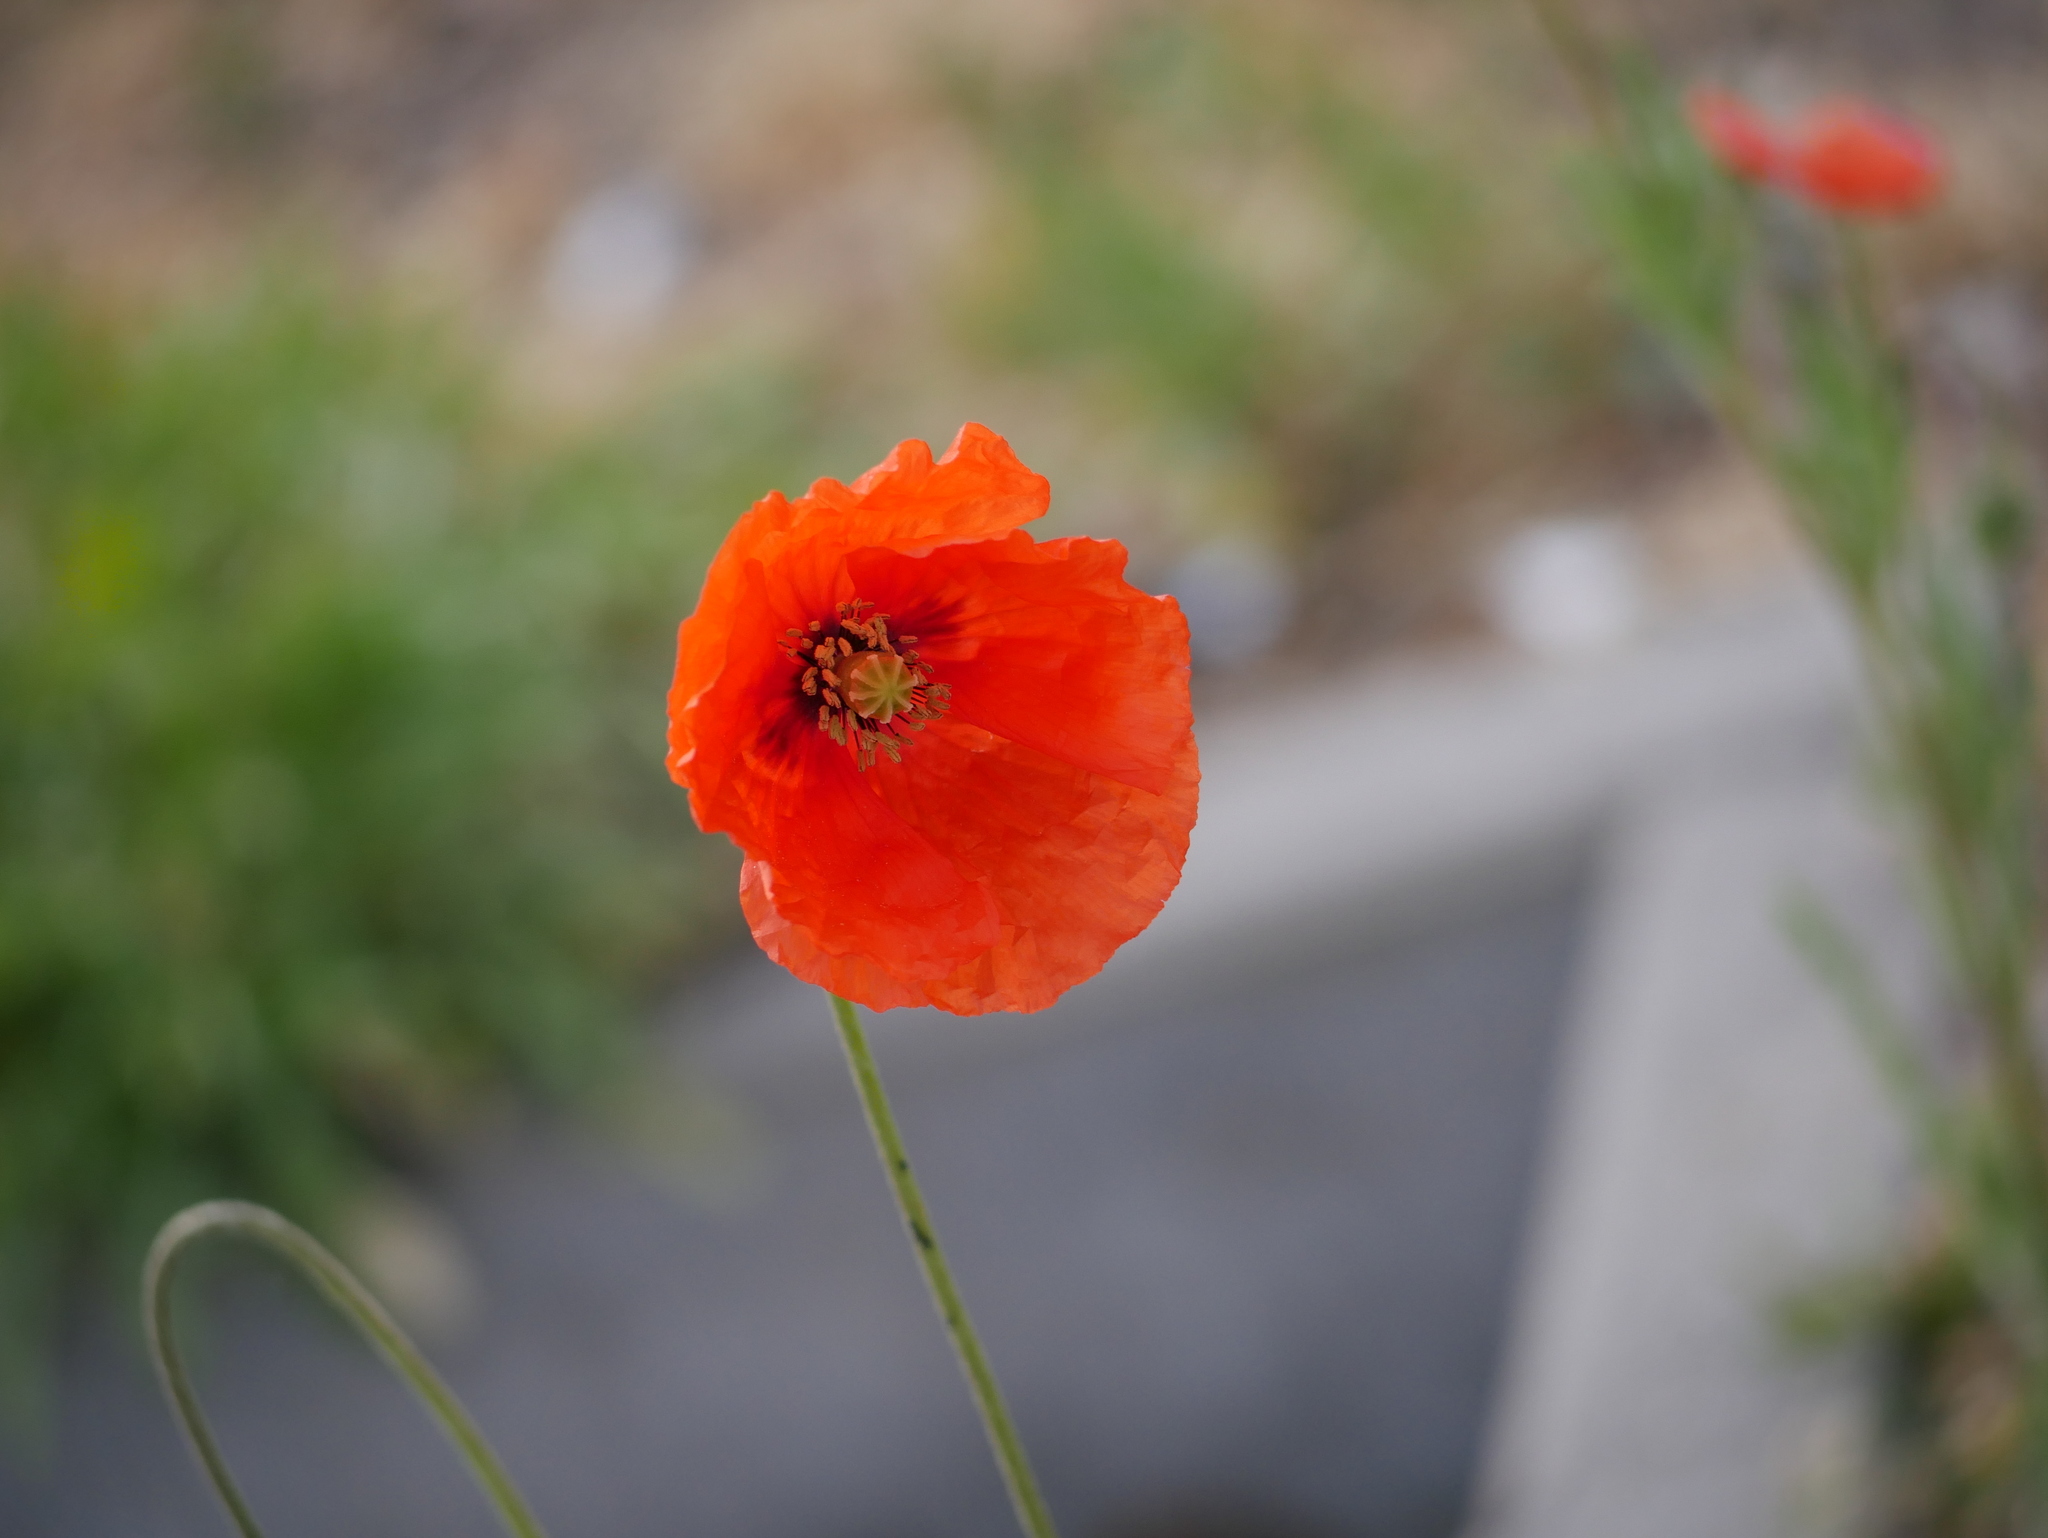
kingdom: Plantae
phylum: Tracheophyta
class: Magnoliopsida
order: Ranunculales
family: Papaveraceae
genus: Papaver
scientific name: Papaver dubium
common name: Long-headed poppy
